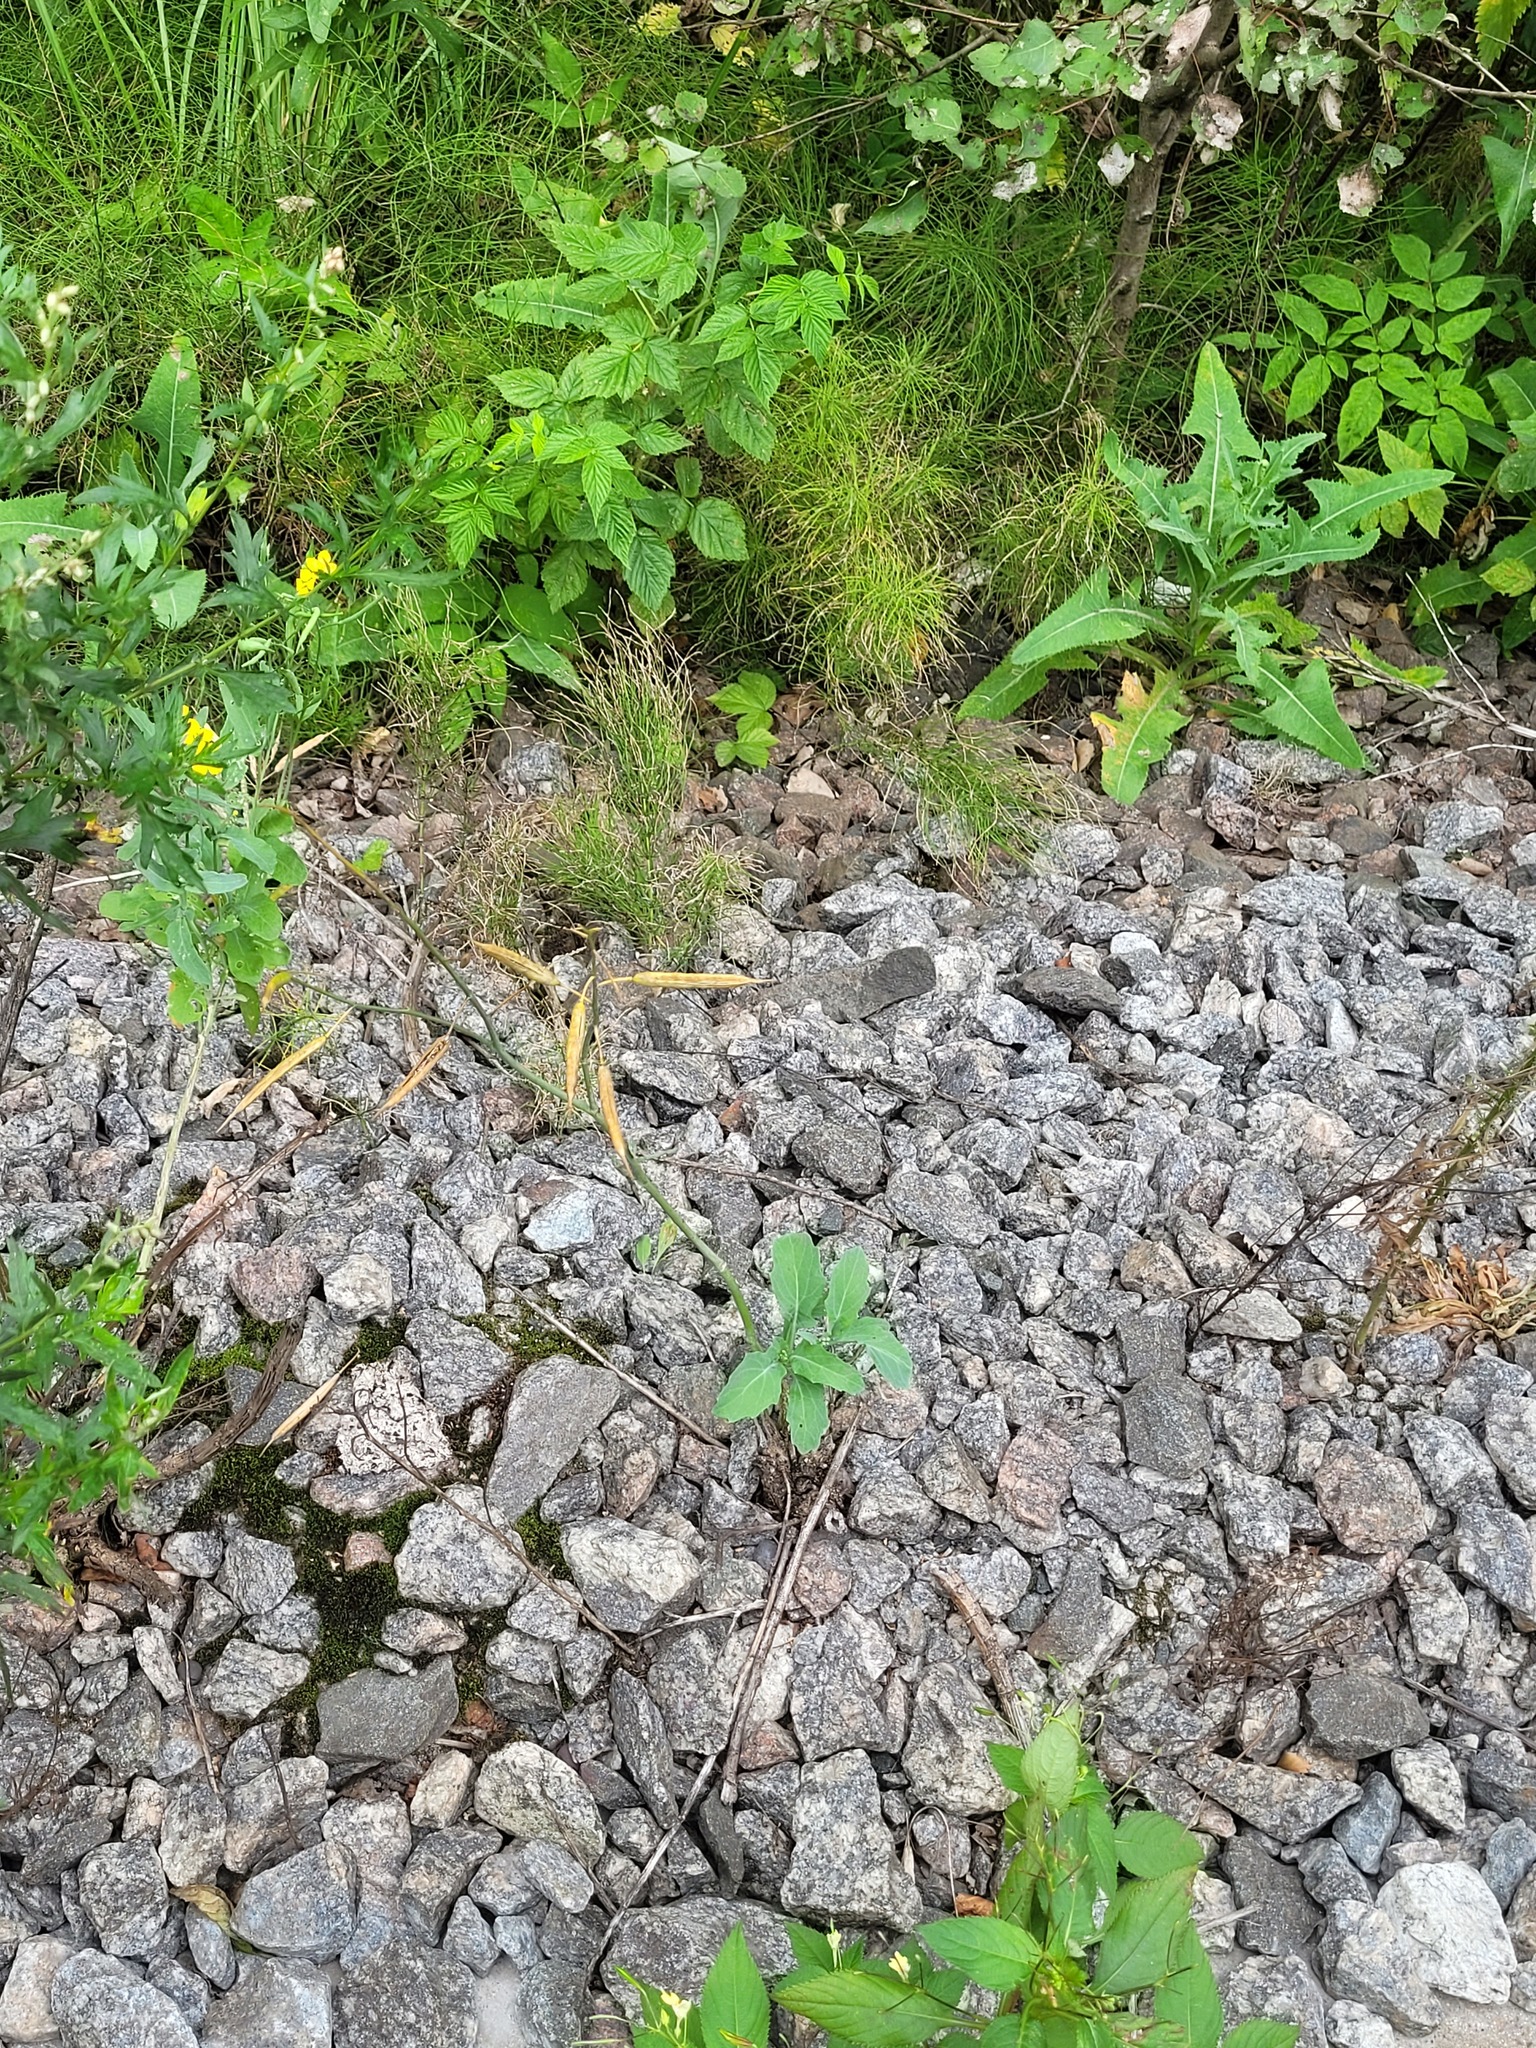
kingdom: Plantae
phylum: Tracheophyta
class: Magnoliopsida
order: Brassicales
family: Brassicaceae
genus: Brassica
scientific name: Brassica napus
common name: Rape
